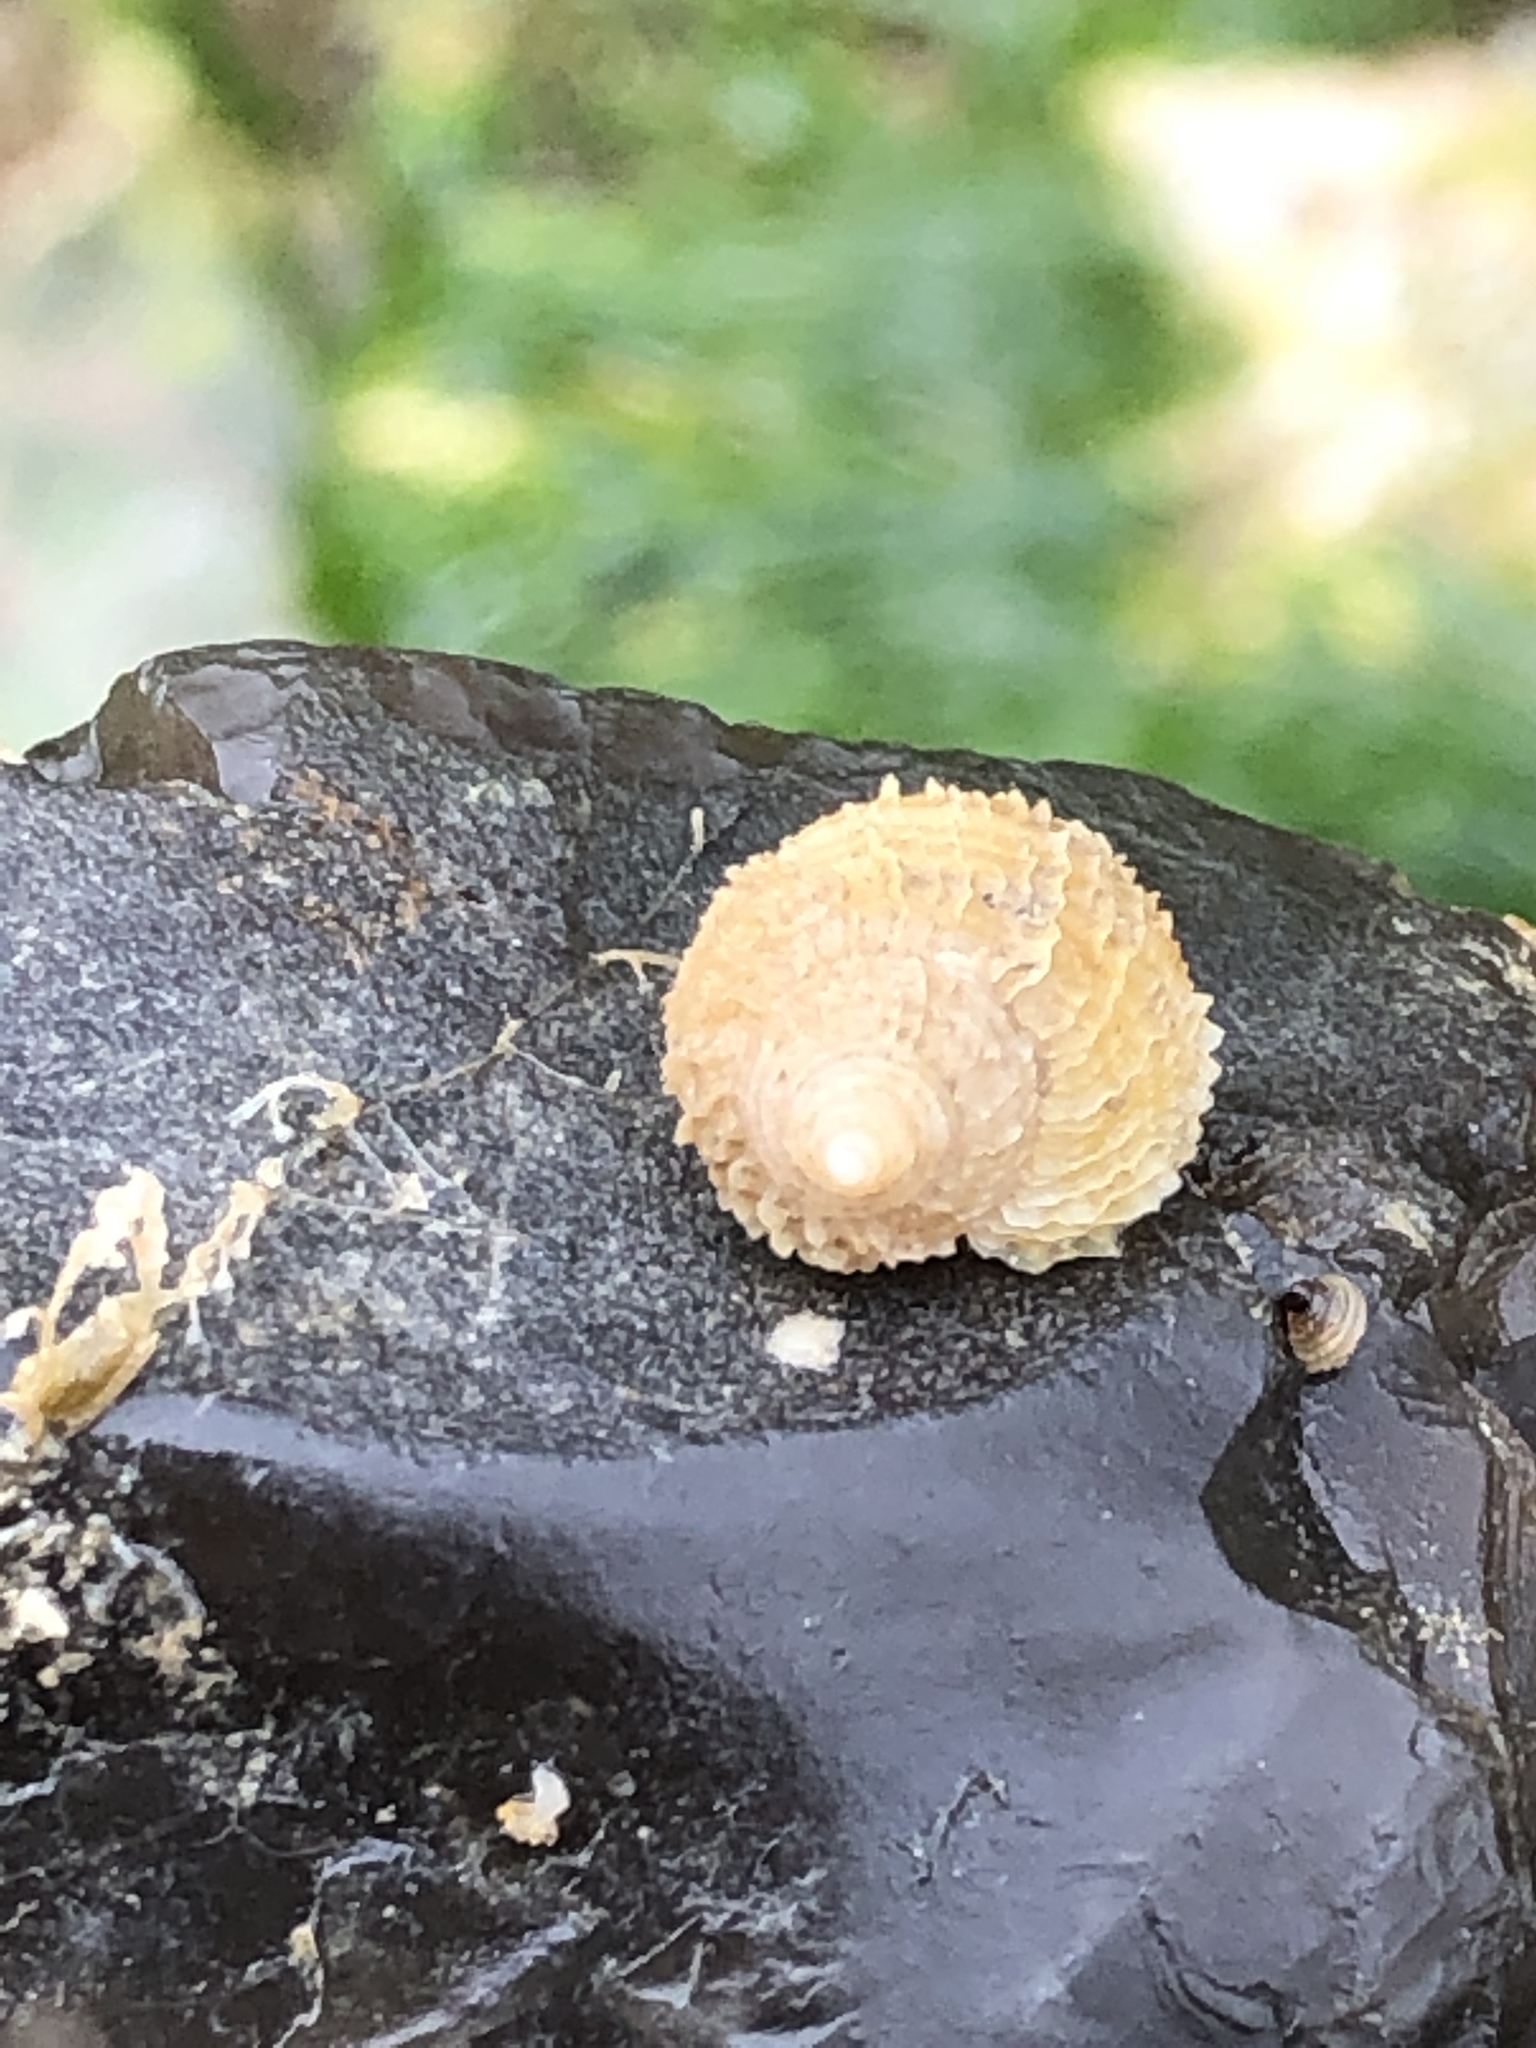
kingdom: Animalia
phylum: Mollusca
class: Gastropoda
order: Neogastropoda
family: Muricidae
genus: Nucella
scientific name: Nucella lapillus
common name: Dog whelk
